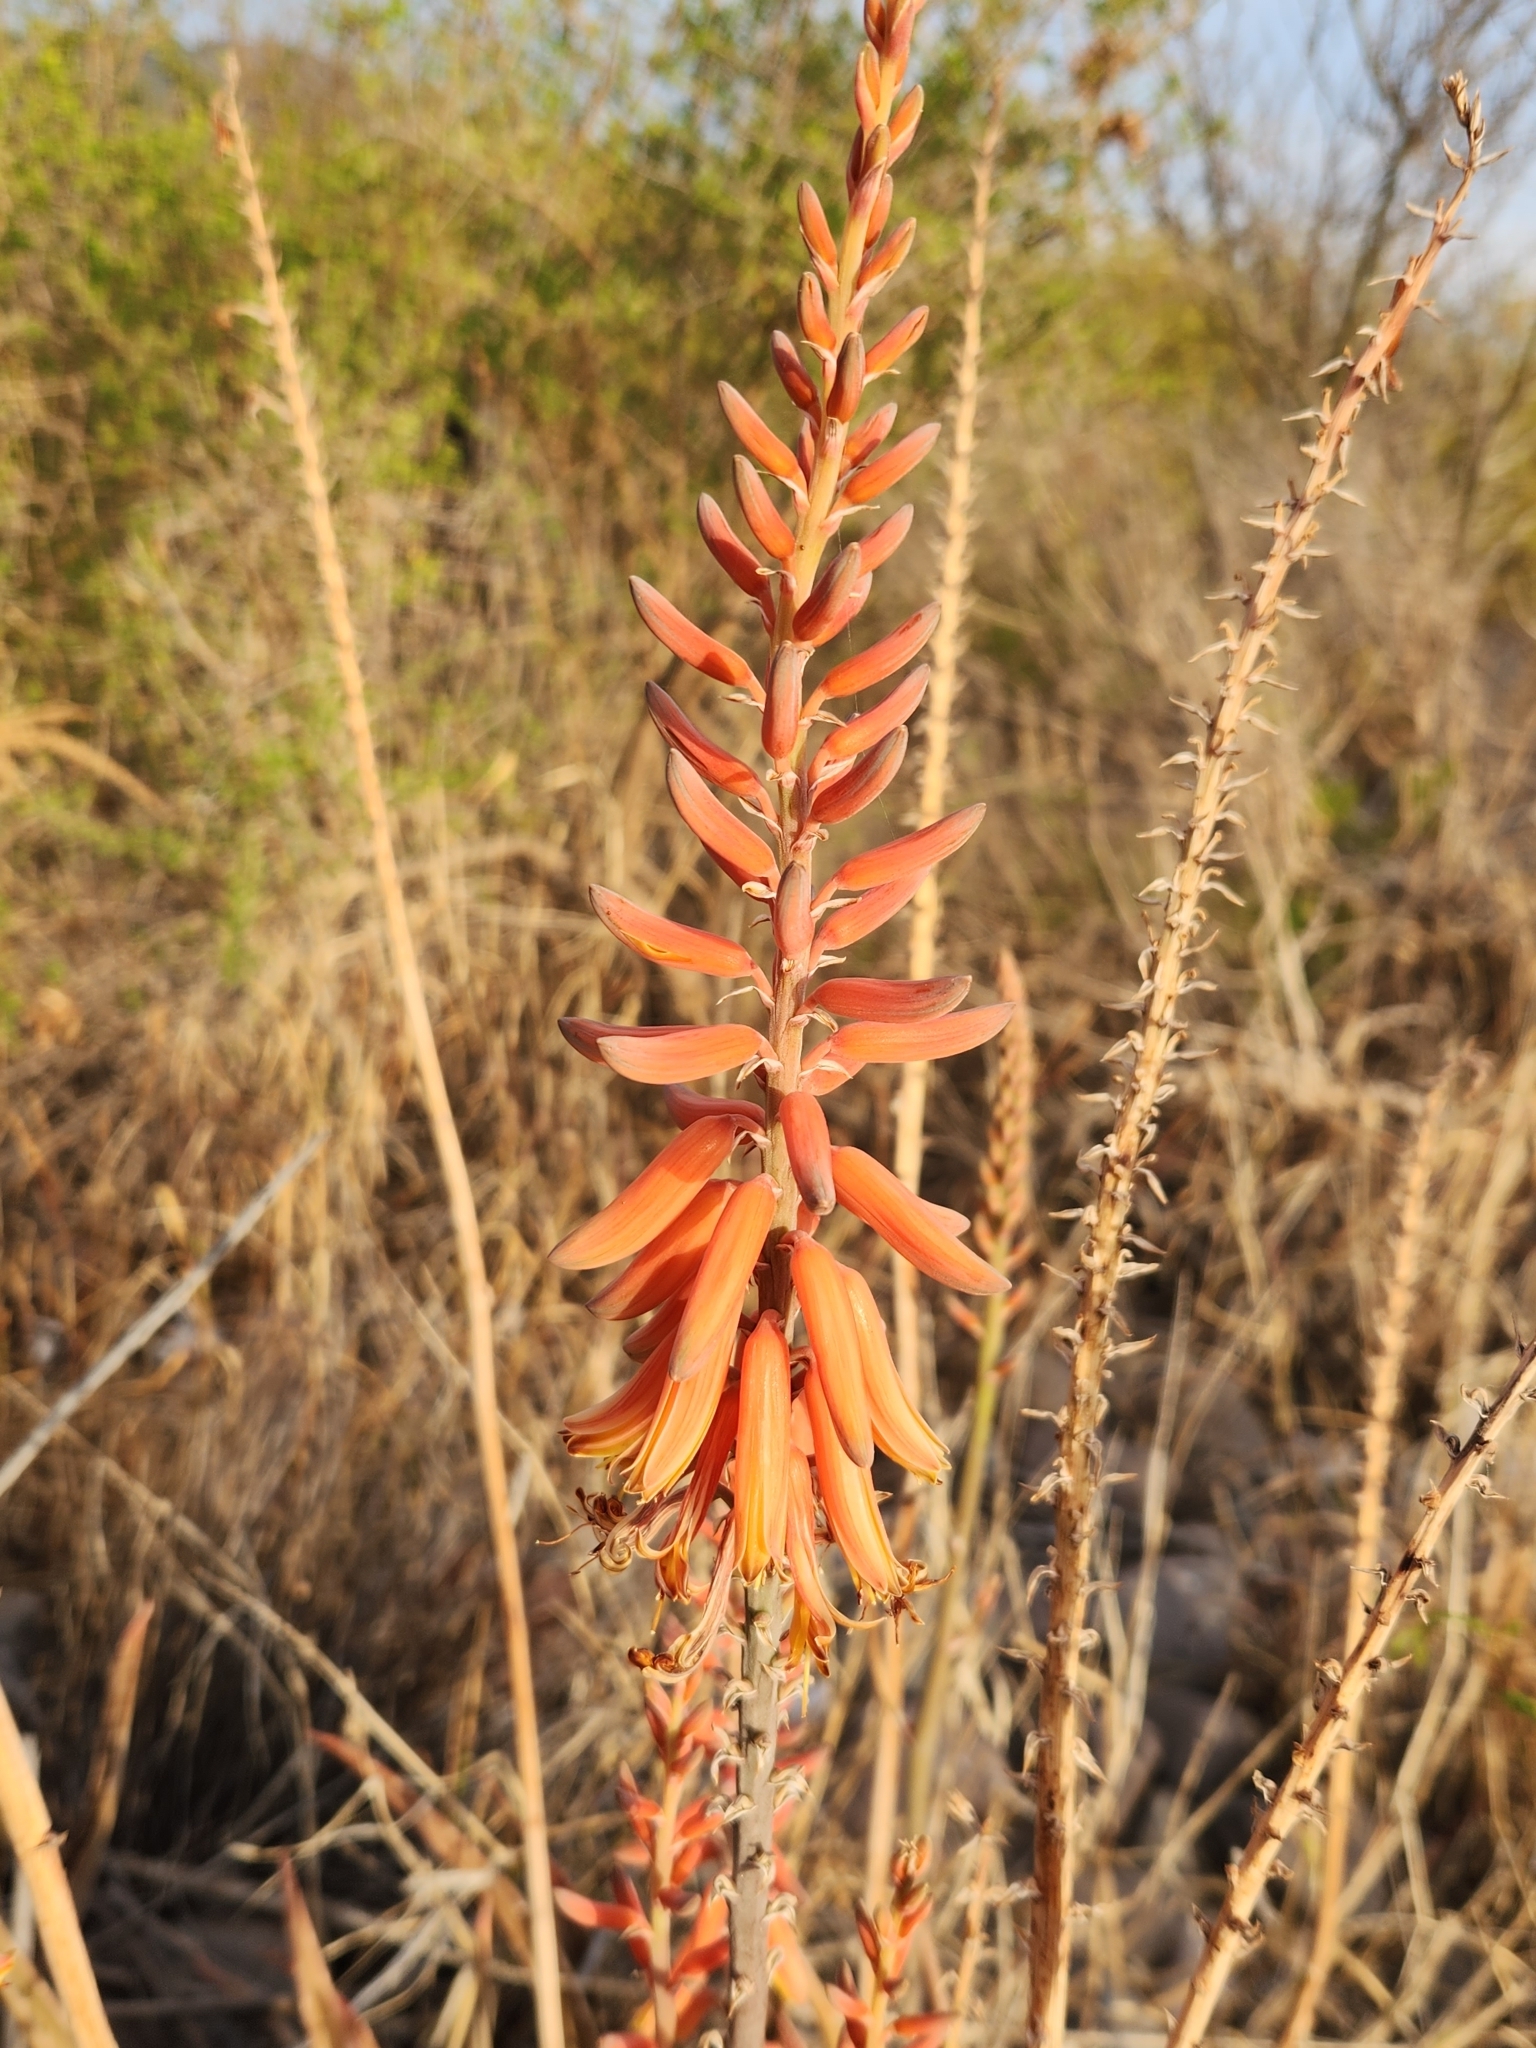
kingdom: Plantae
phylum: Tracheophyta
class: Liliopsida
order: Asparagales
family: Asphodelaceae
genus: Aloe
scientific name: Aloe vera
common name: Barbados aloe
